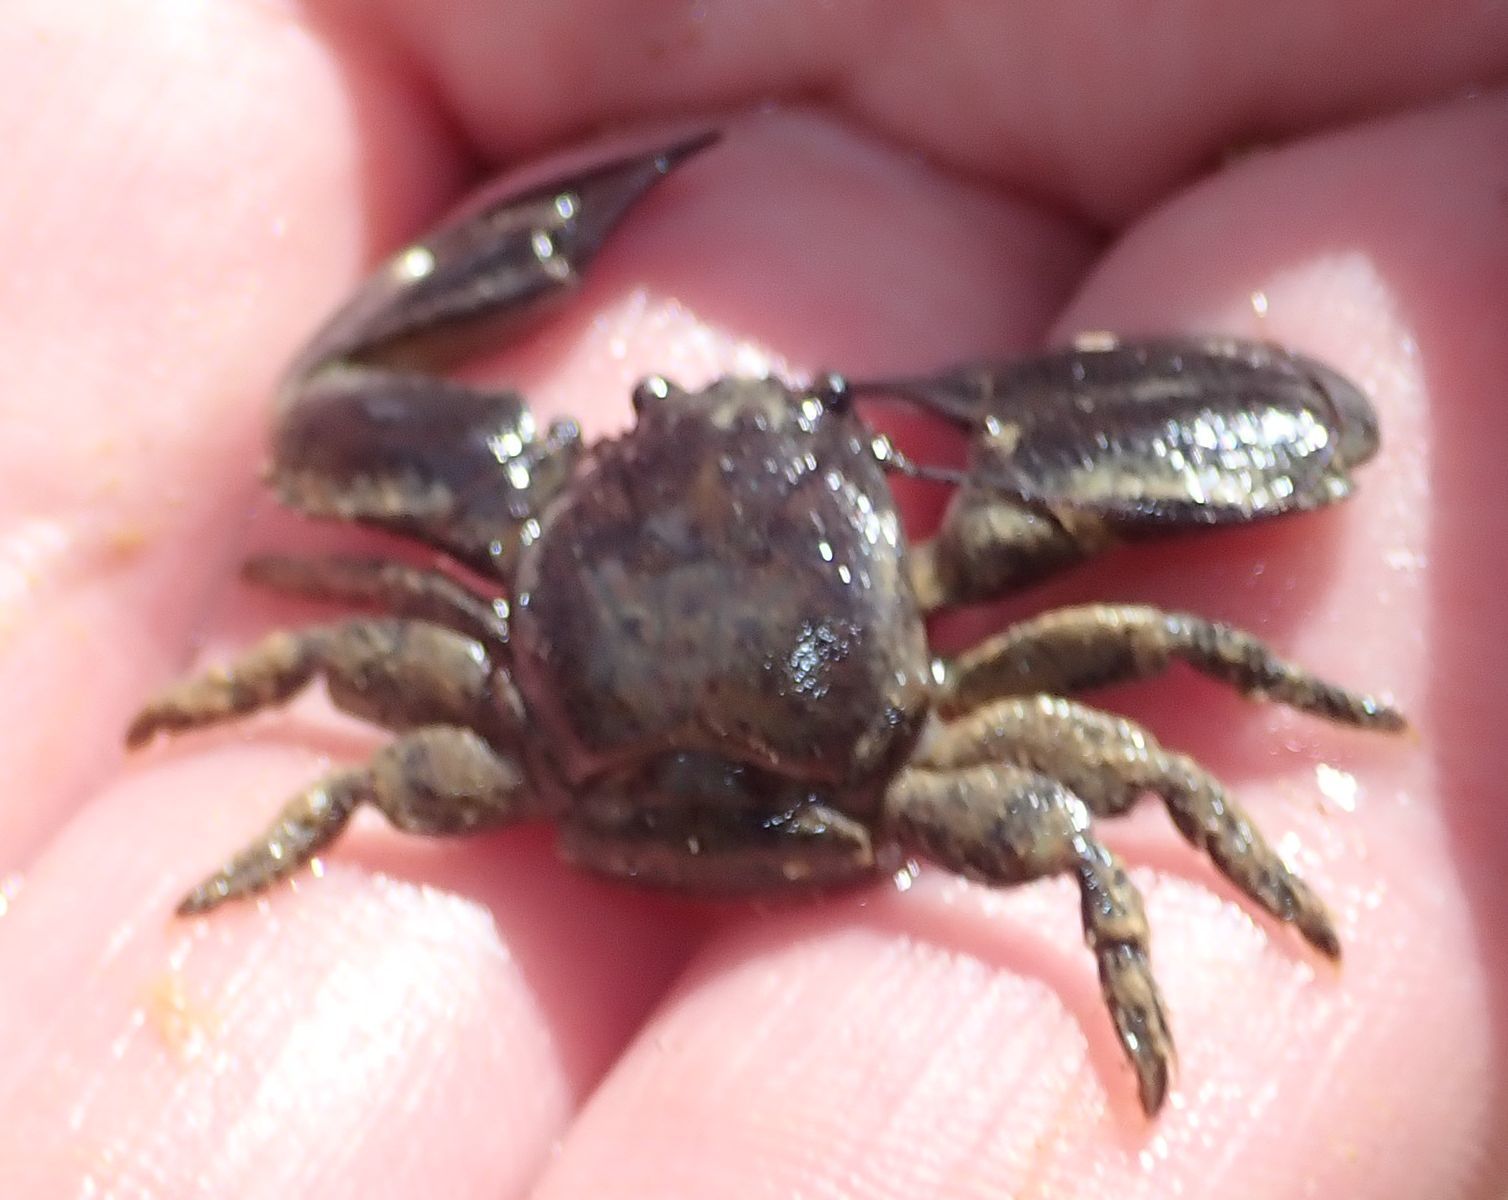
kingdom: Animalia
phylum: Arthropoda
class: Malacostraca
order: Decapoda
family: Porcellanidae
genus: Petrolisthes
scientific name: Petrolisthes elongatus
